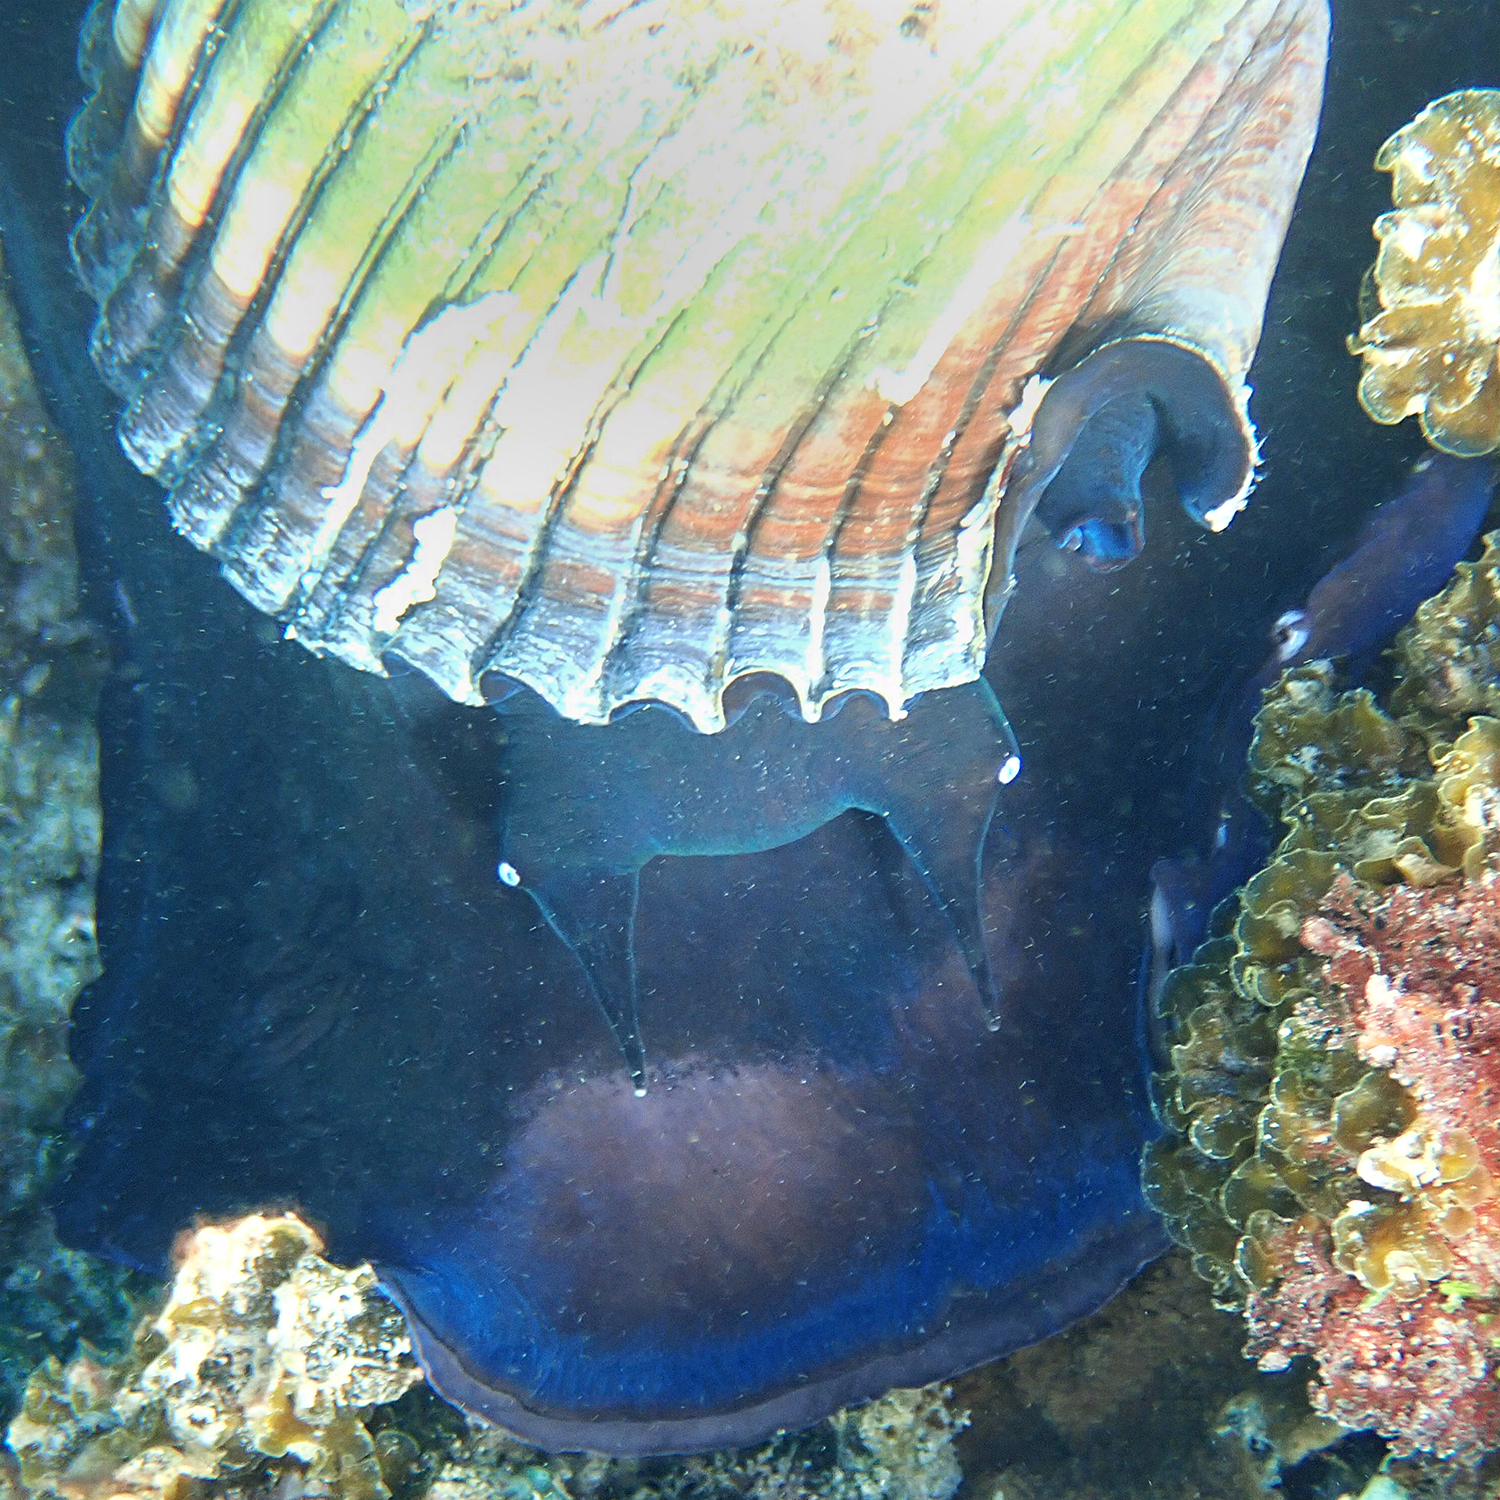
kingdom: Animalia
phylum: Mollusca
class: Gastropoda
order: Littorinimorpha
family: Tonnidae
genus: Tonna
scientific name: Tonna melanostoma
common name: Black mouthed tun
